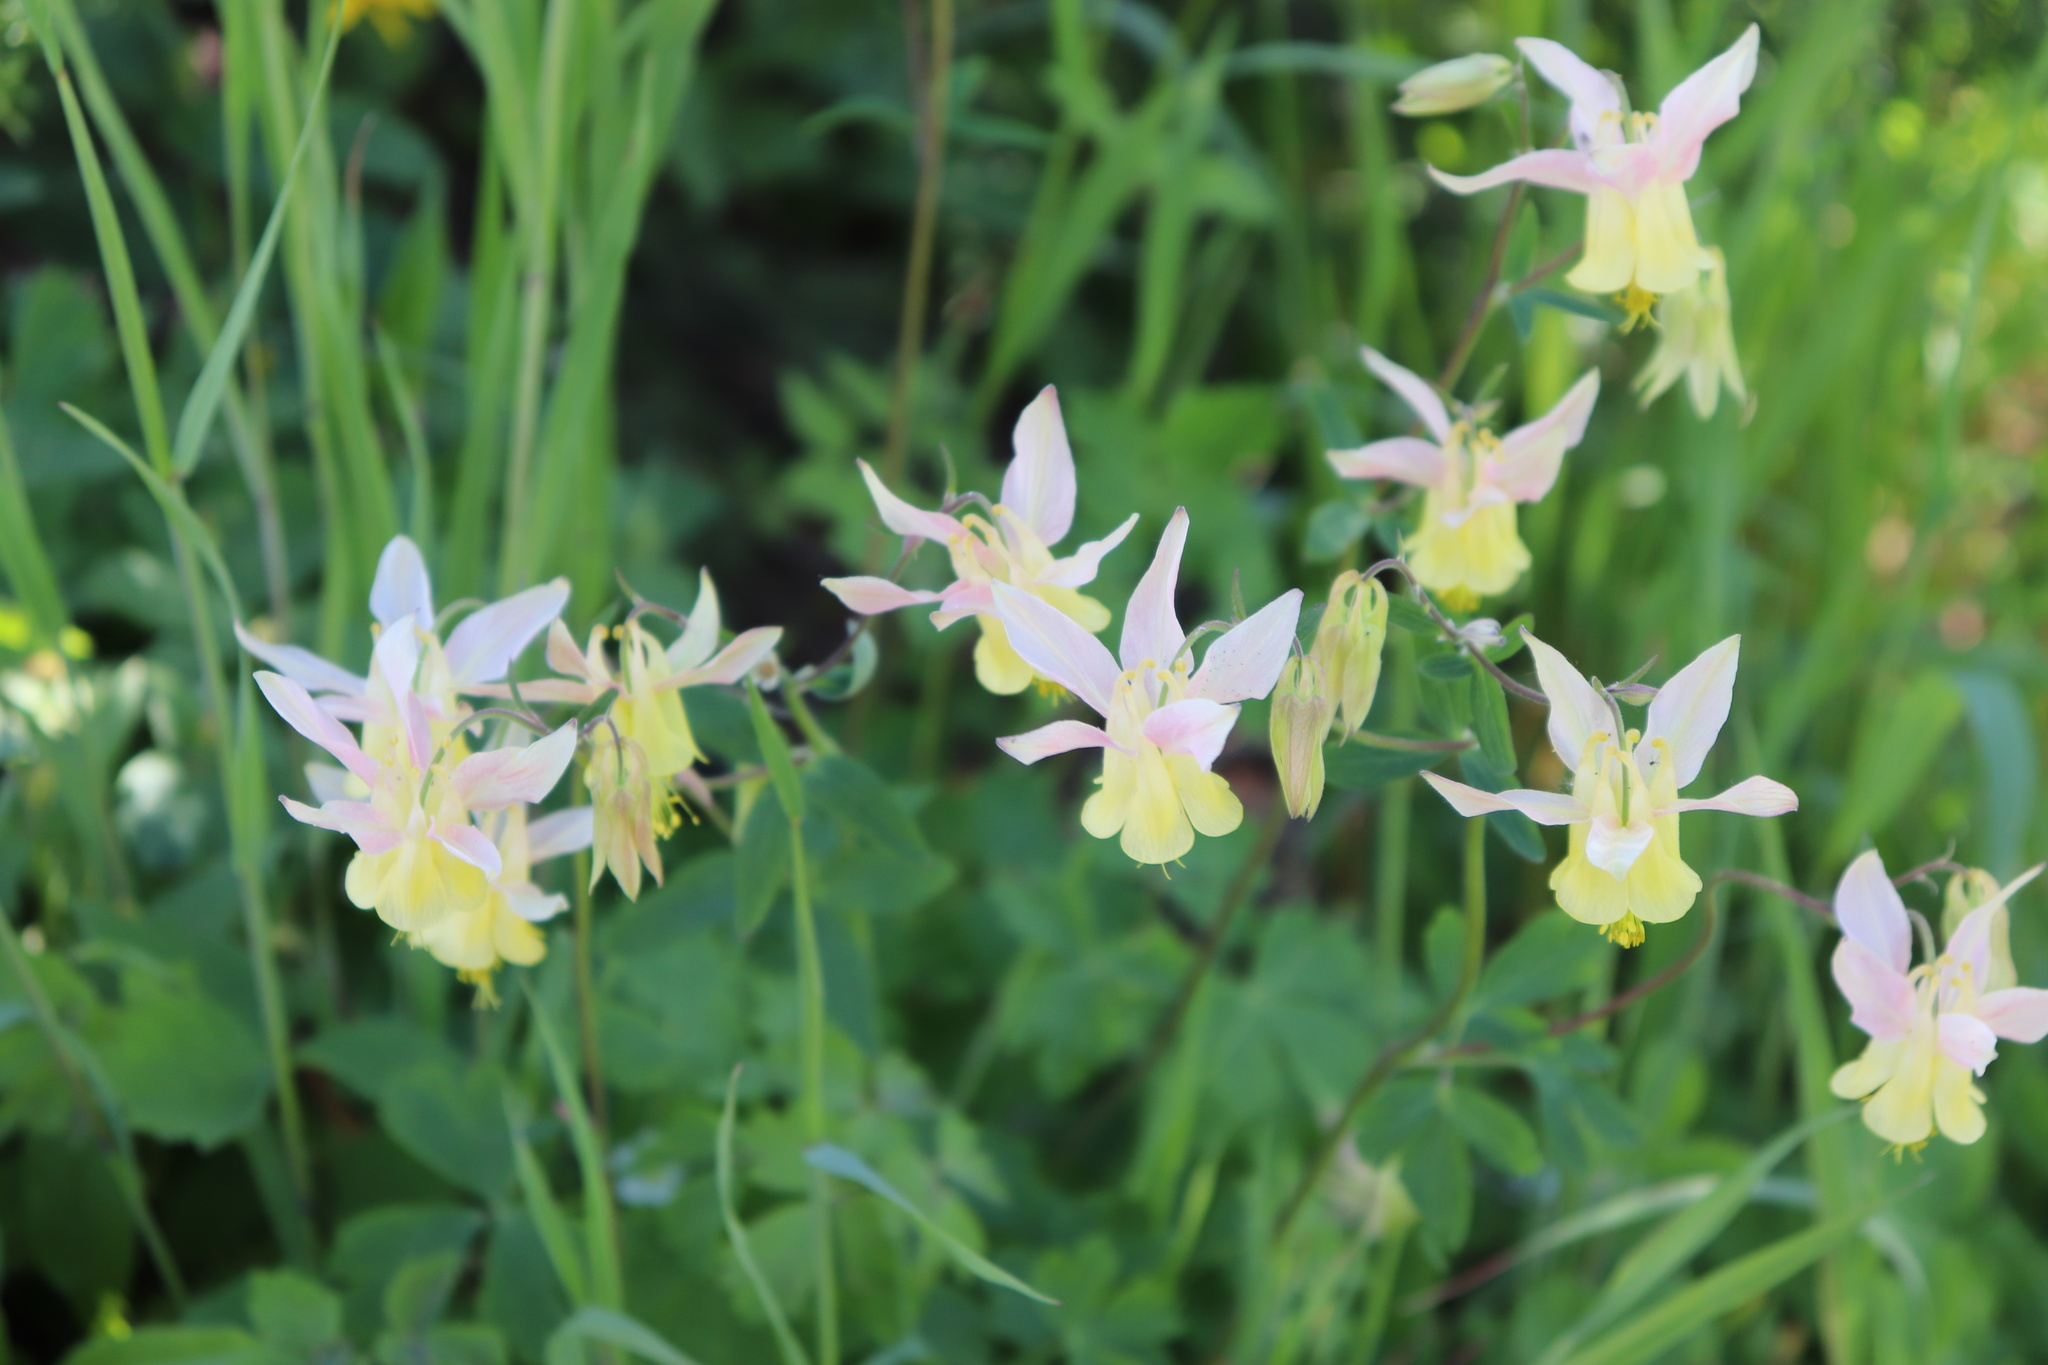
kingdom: Plantae
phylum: Tracheophyta
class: Magnoliopsida
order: Ranunculales
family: Ranunculaceae
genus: Aquilegia
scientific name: Aquilegia flavescens
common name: Yellow columbine
